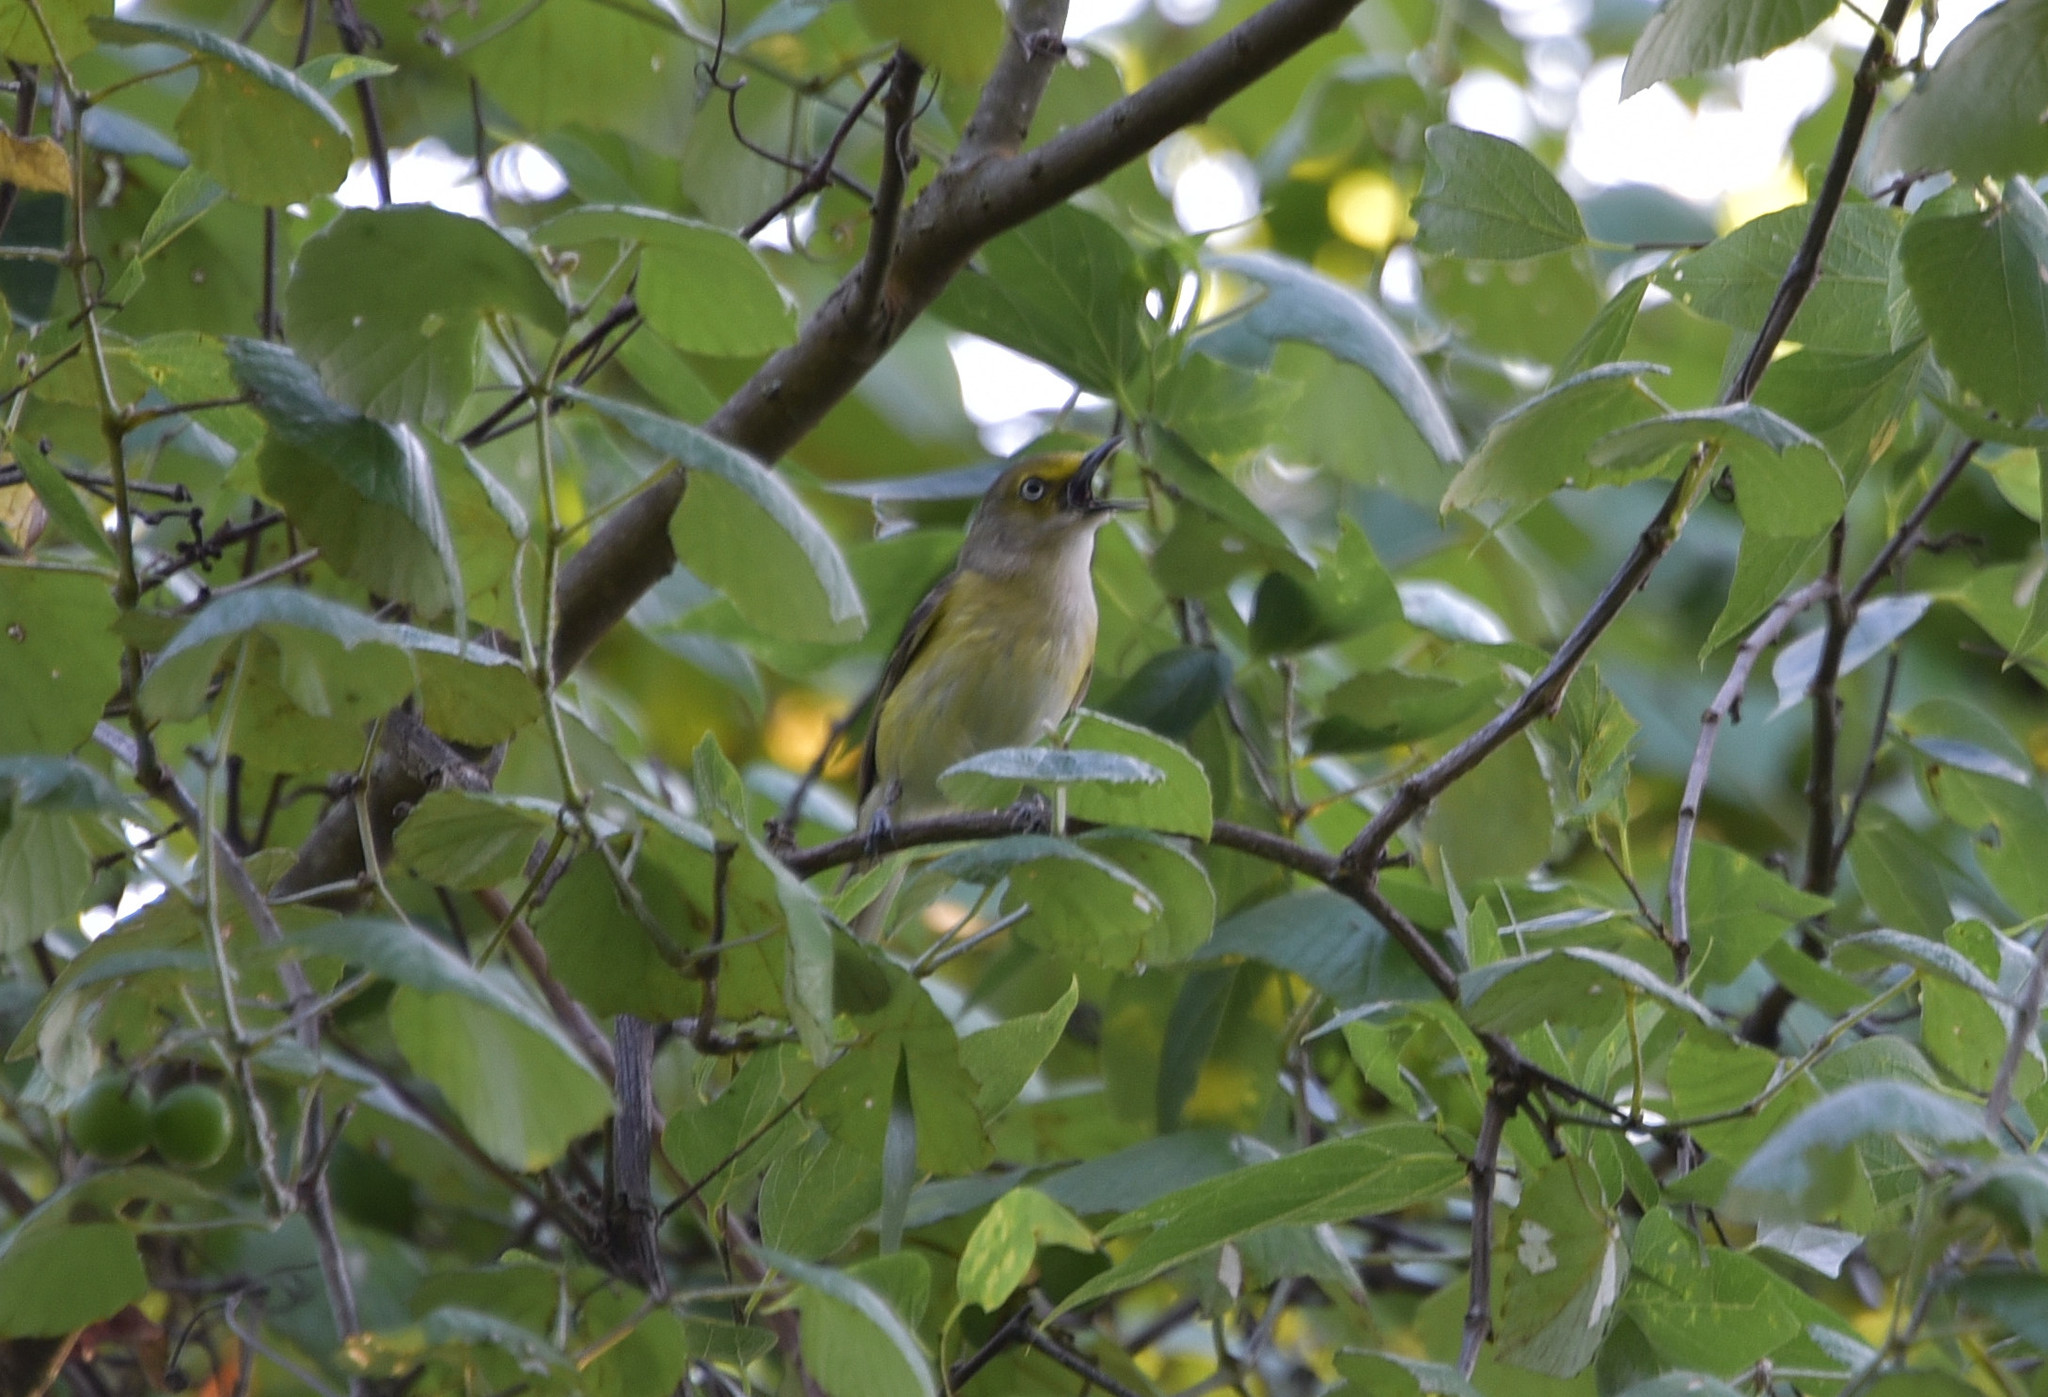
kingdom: Animalia
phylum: Chordata
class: Aves
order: Passeriformes
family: Vireonidae
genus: Vireo
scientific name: Vireo griseus
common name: White-eyed vireo
